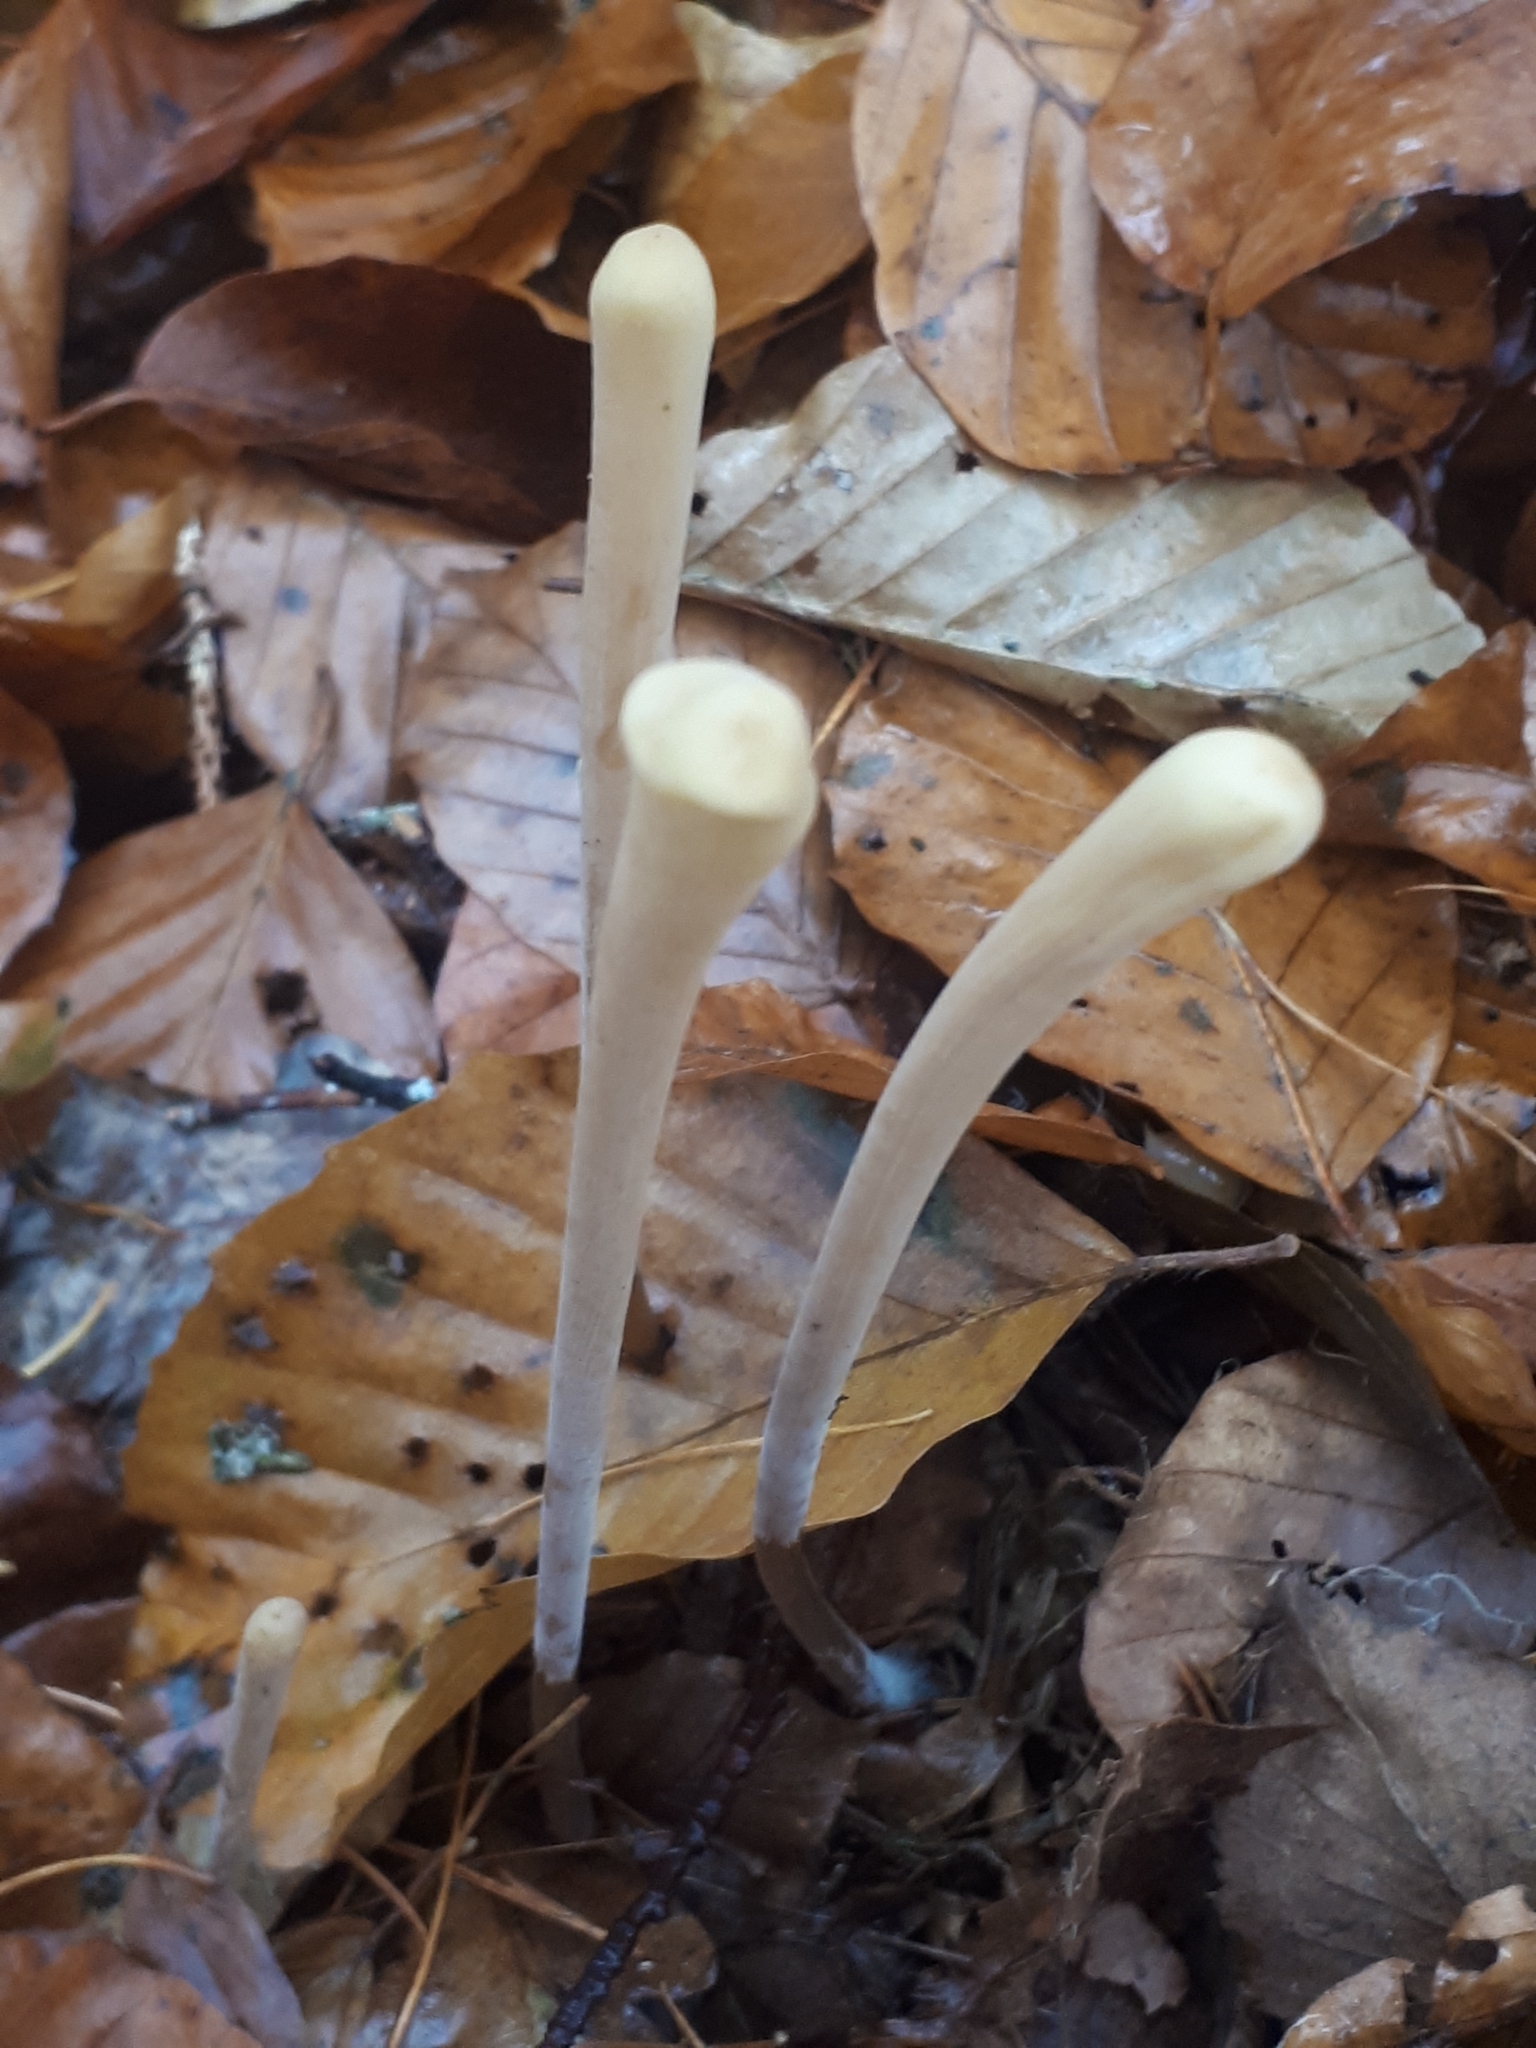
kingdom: Fungi
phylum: Basidiomycota
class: Agaricomycetes
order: Agaricales
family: Typhulaceae
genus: Typhula
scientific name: Typhula fistulosa
